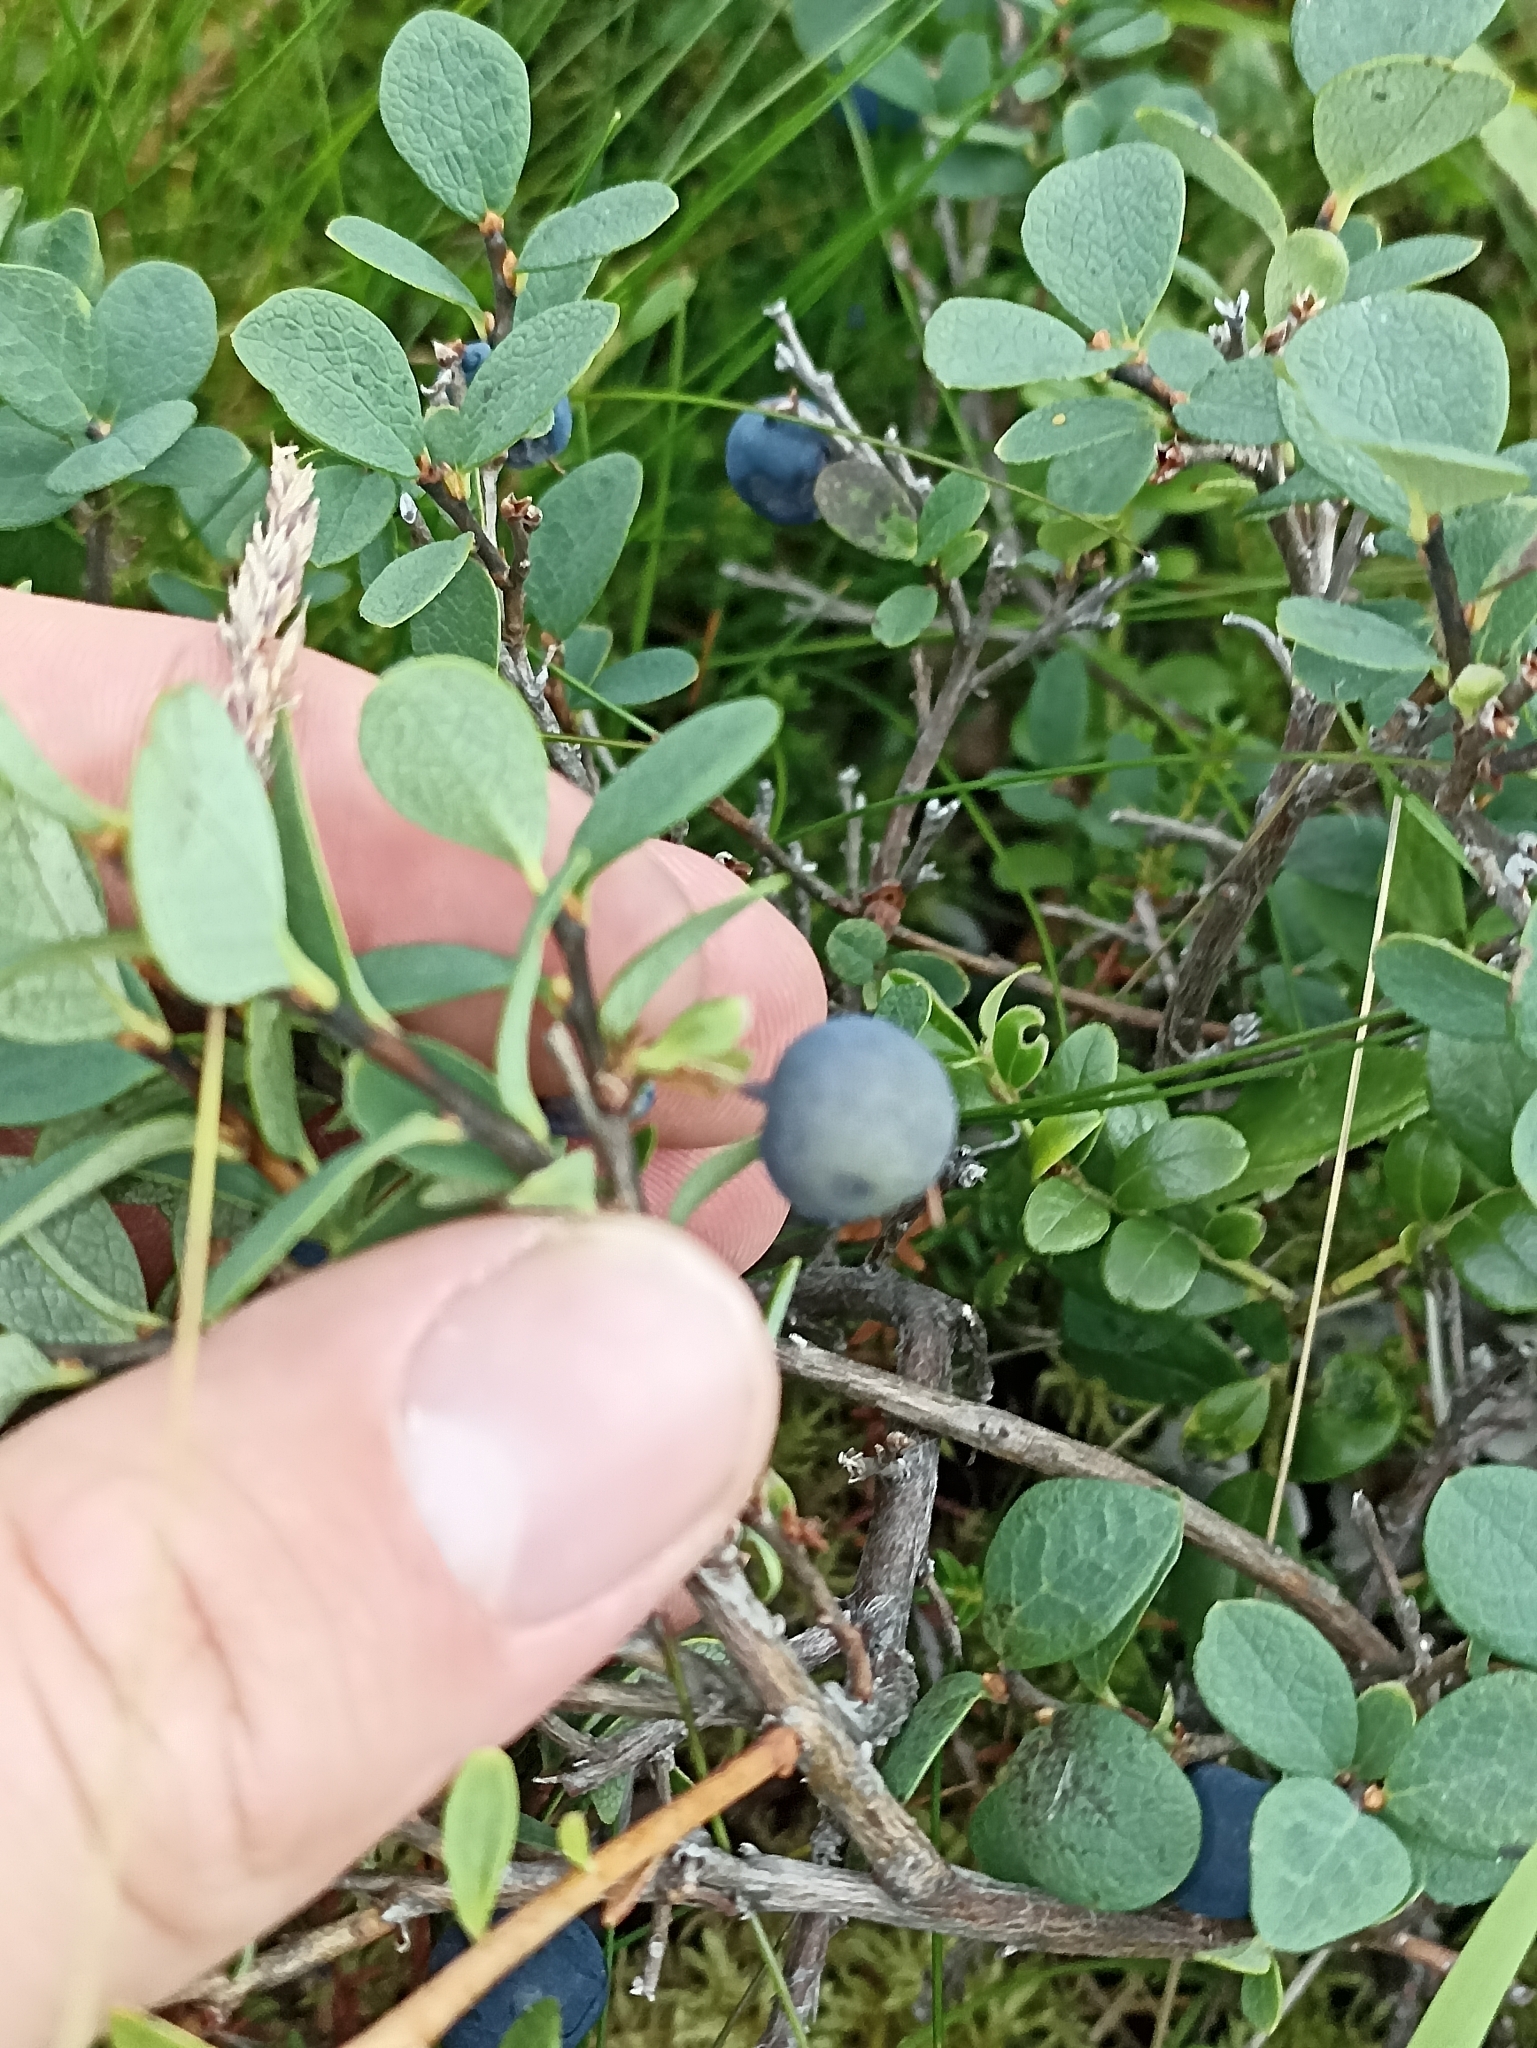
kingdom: Plantae
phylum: Tracheophyta
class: Magnoliopsida
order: Ericales
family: Ericaceae
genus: Vaccinium
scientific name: Vaccinium uliginosum
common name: Bog bilberry
